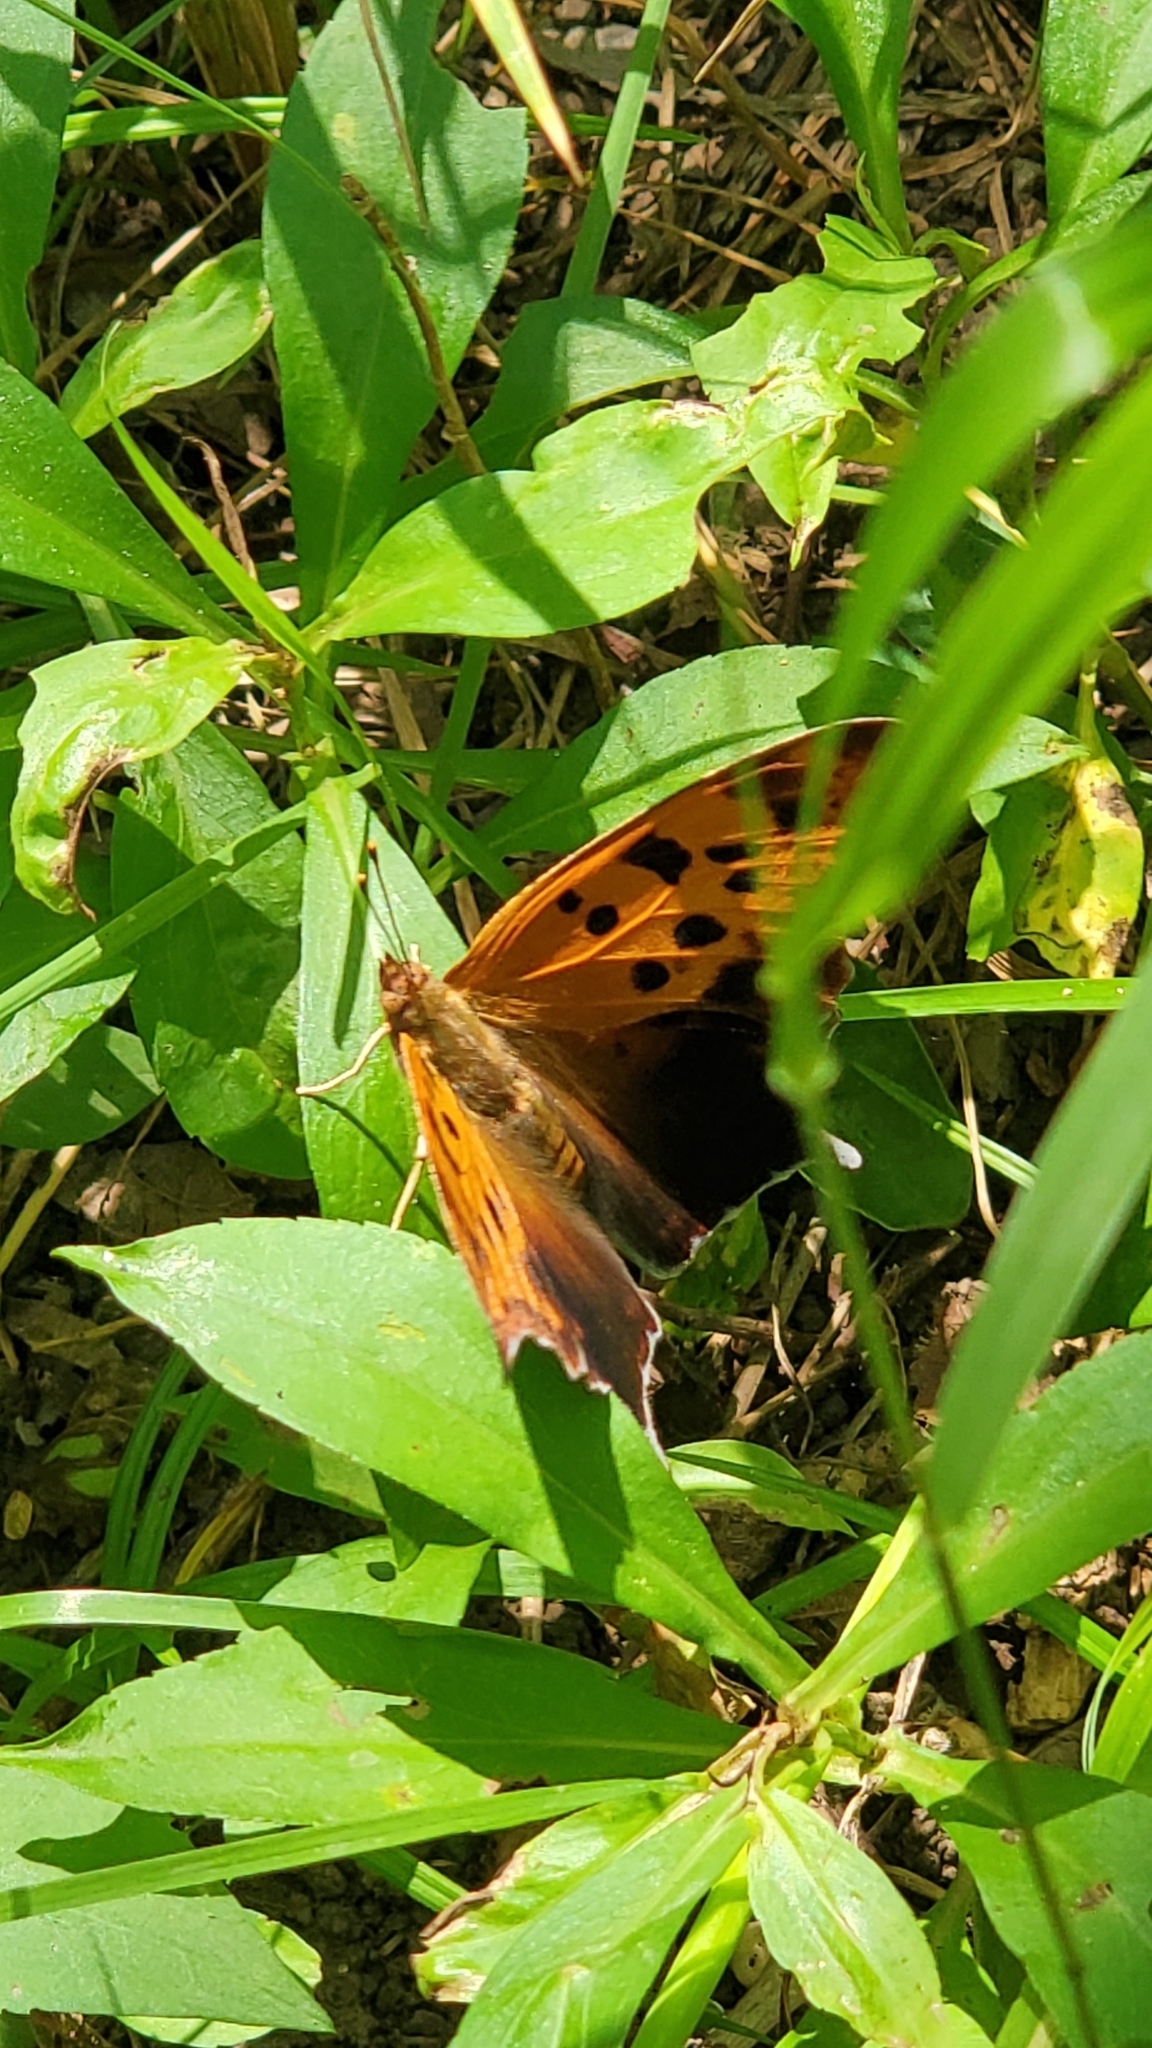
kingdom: Animalia
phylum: Arthropoda
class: Insecta
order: Lepidoptera
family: Nymphalidae
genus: Polygonia
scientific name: Polygonia interrogationis
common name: Question mark
